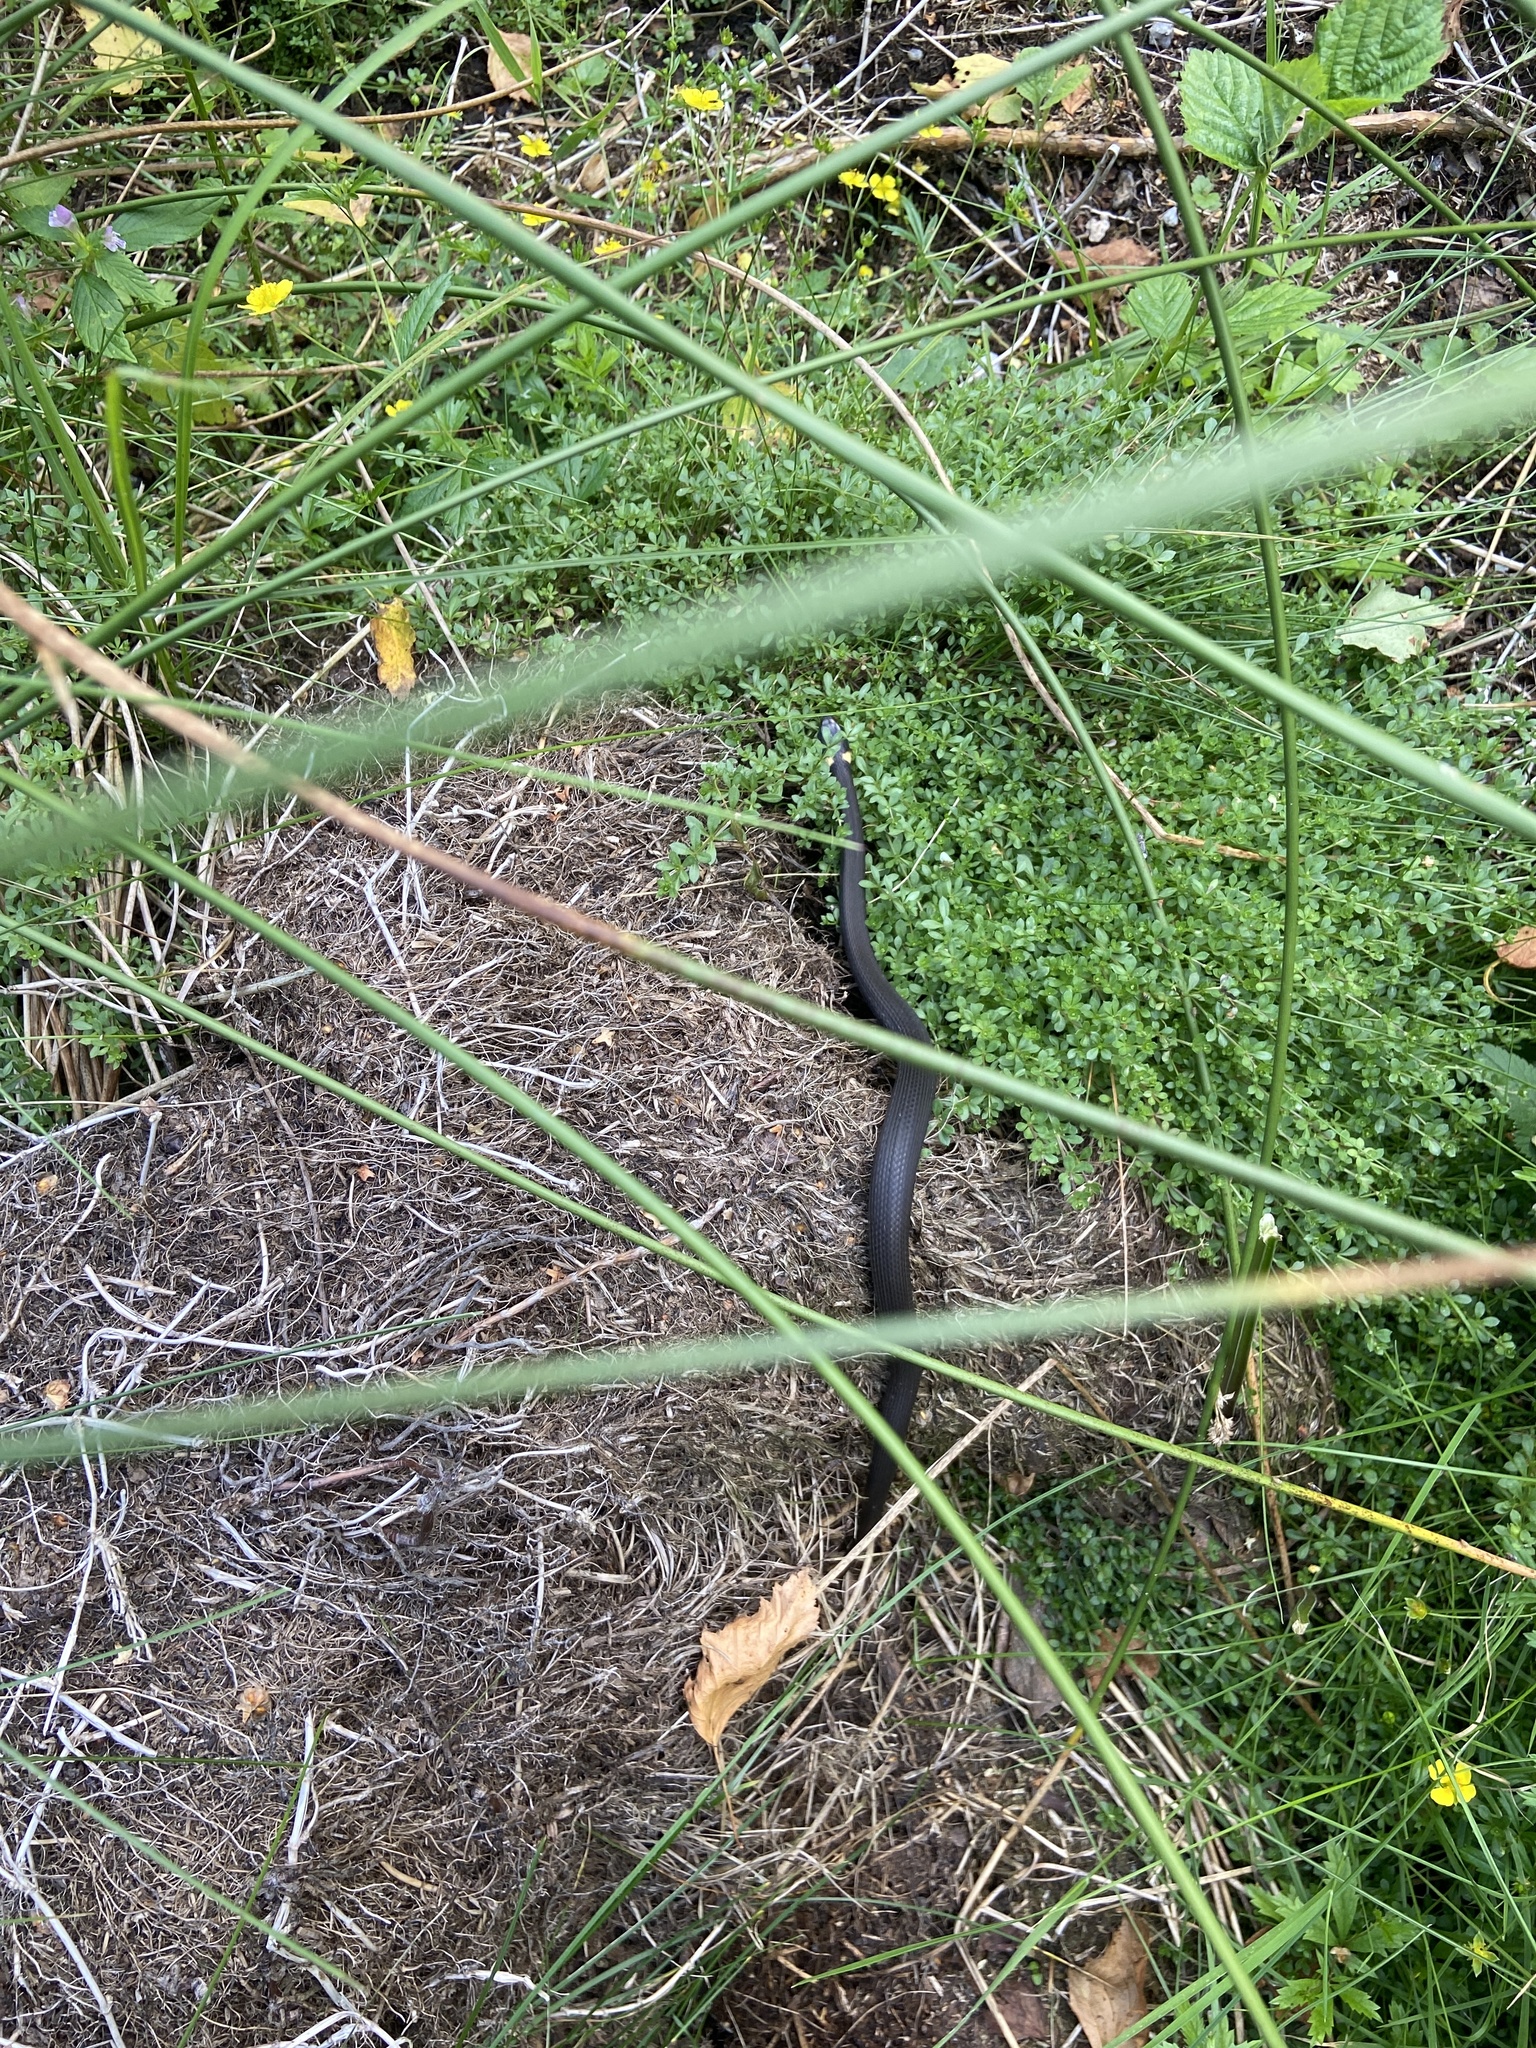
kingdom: Animalia
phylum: Chordata
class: Squamata
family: Colubridae
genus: Natrix
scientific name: Natrix natrix
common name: Grass snake
